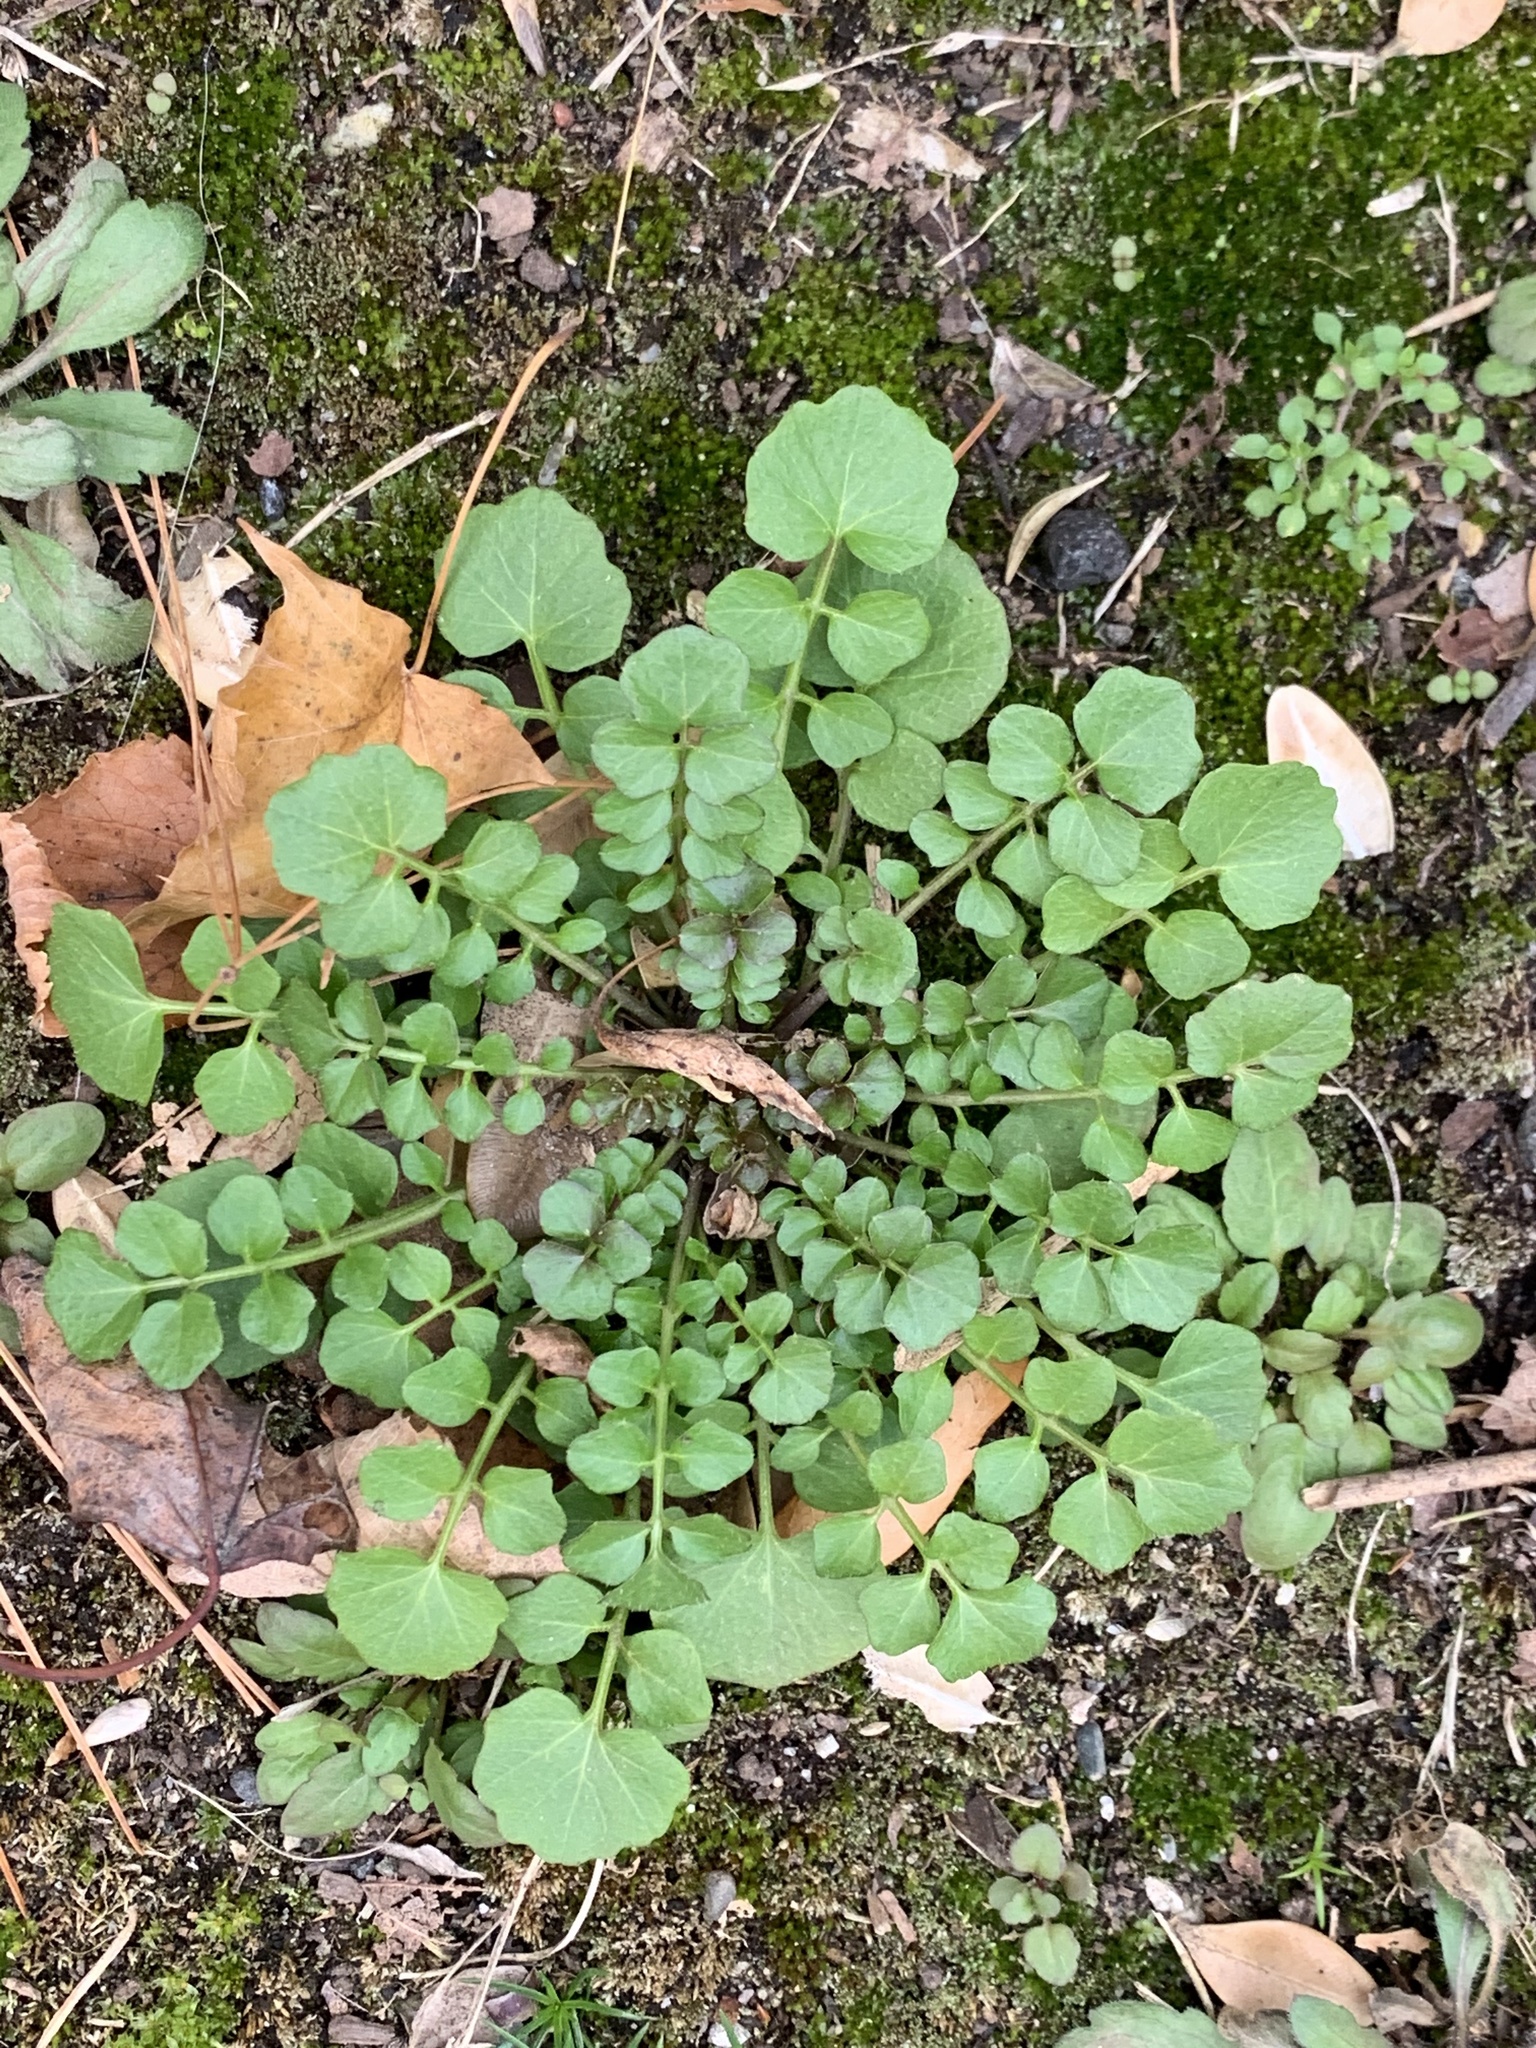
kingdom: Plantae
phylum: Tracheophyta
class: Magnoliopsida
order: Brassicales
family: Brassicaceae
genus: Cardamine
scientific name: Cardamine hirsuta
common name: Hairy bittercress
